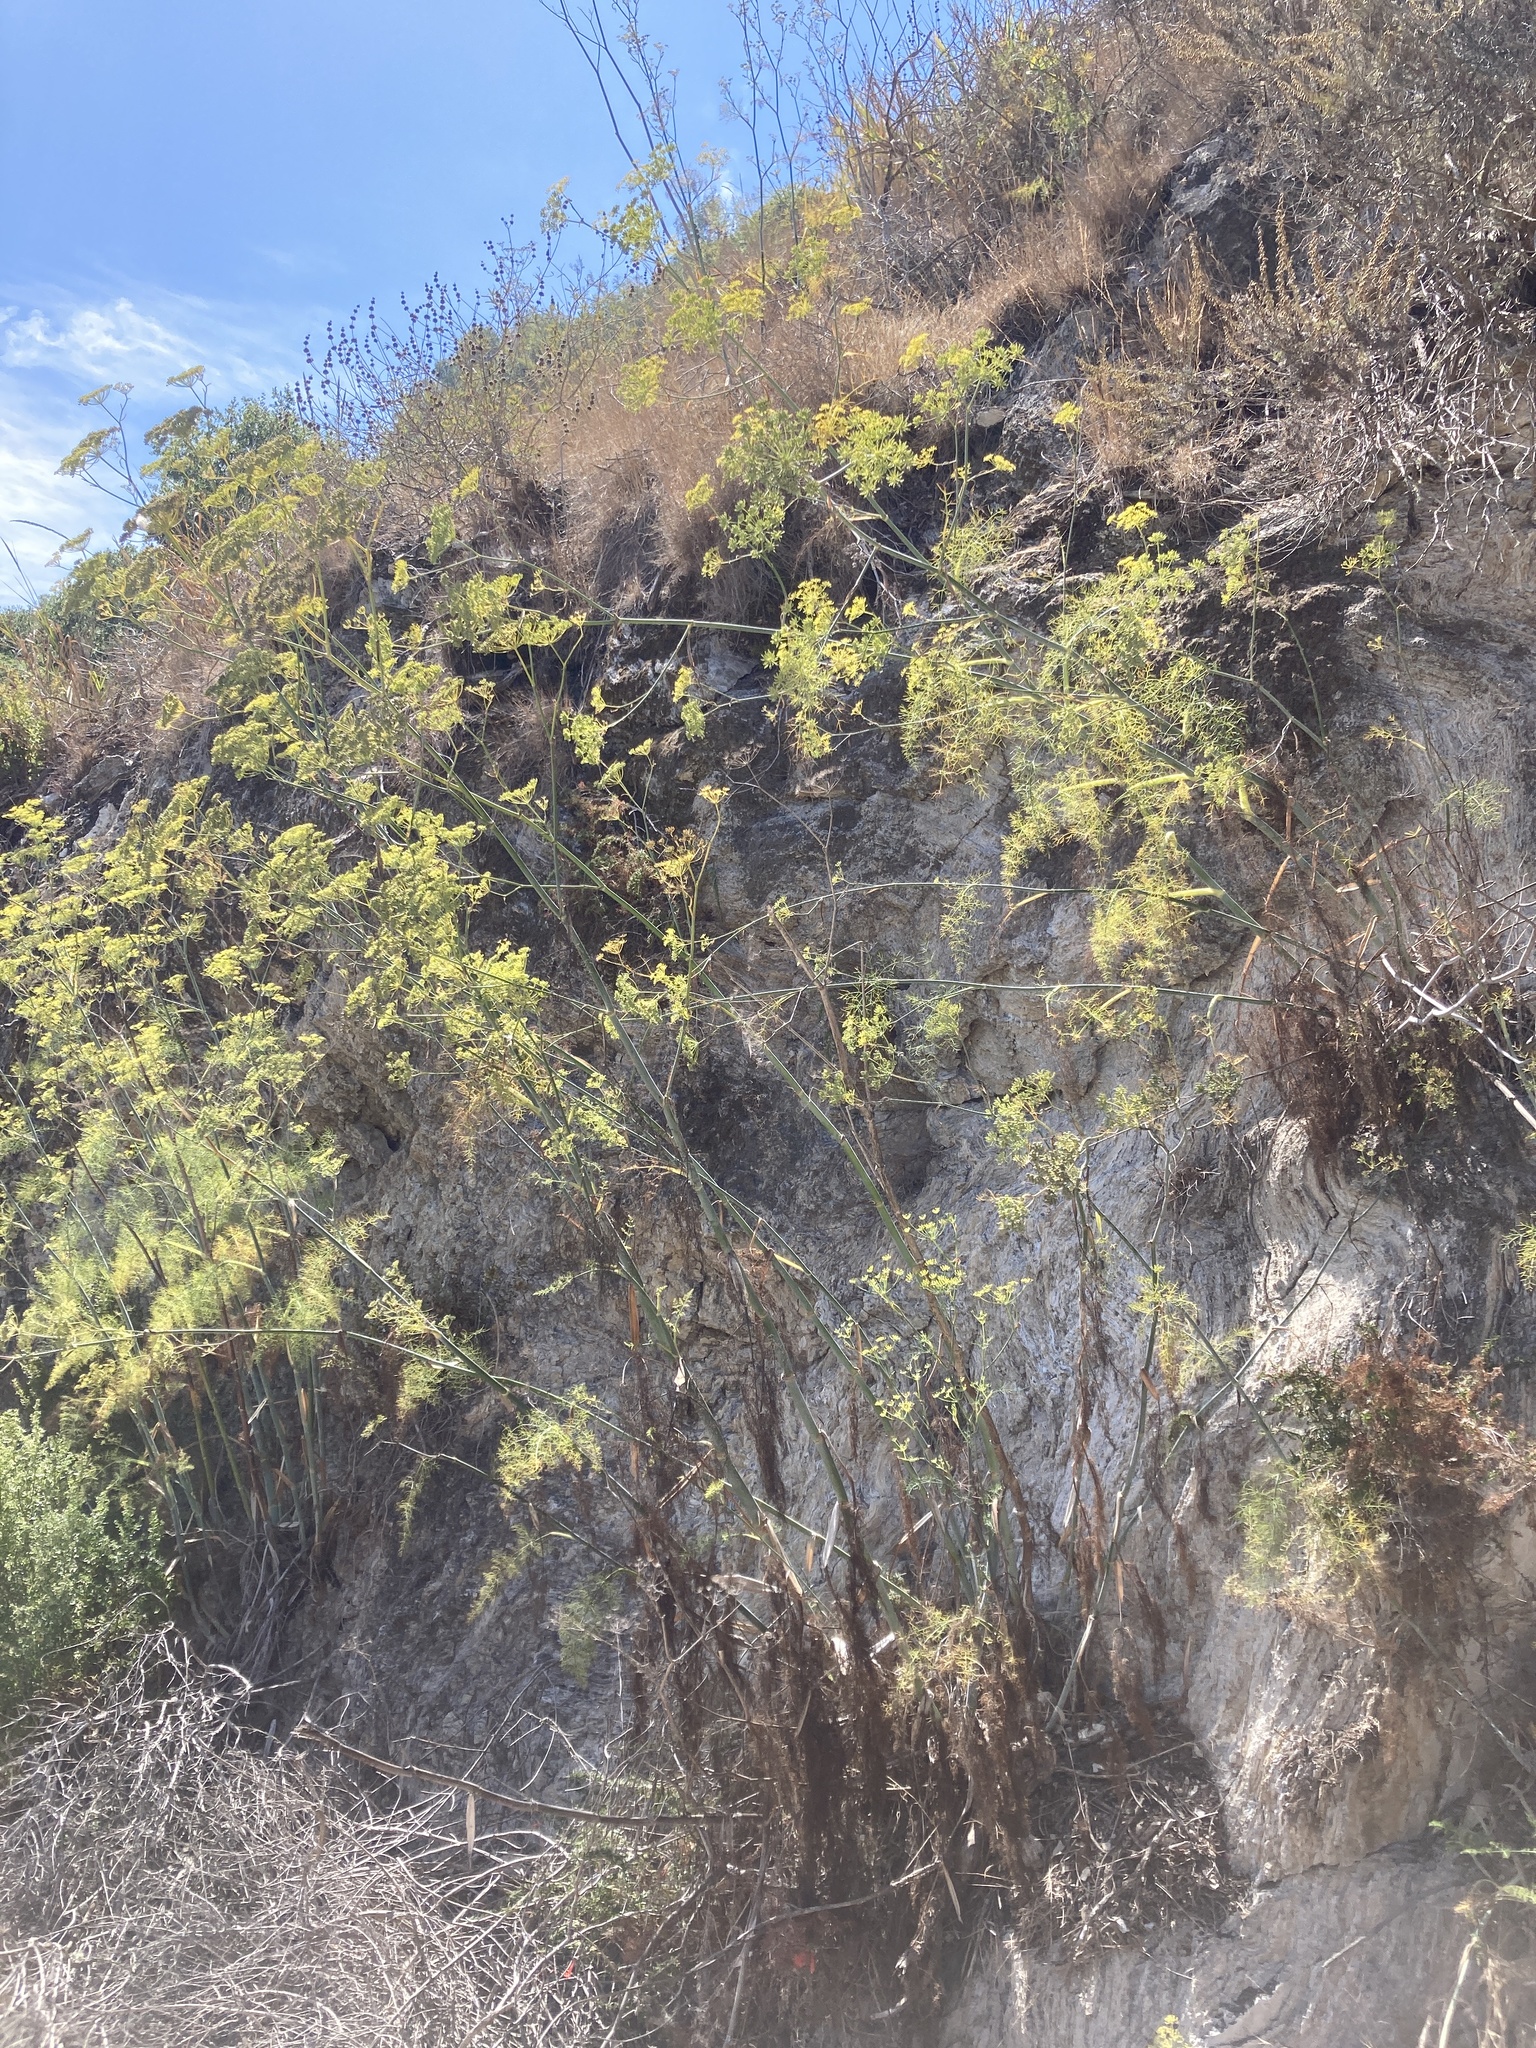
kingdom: Plantae
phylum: Tracheophyta
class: Magnoliopsida
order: Apiales
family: Apiaceae
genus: Foeniculum
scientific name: Foeniculum vulgare
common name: Fennel
